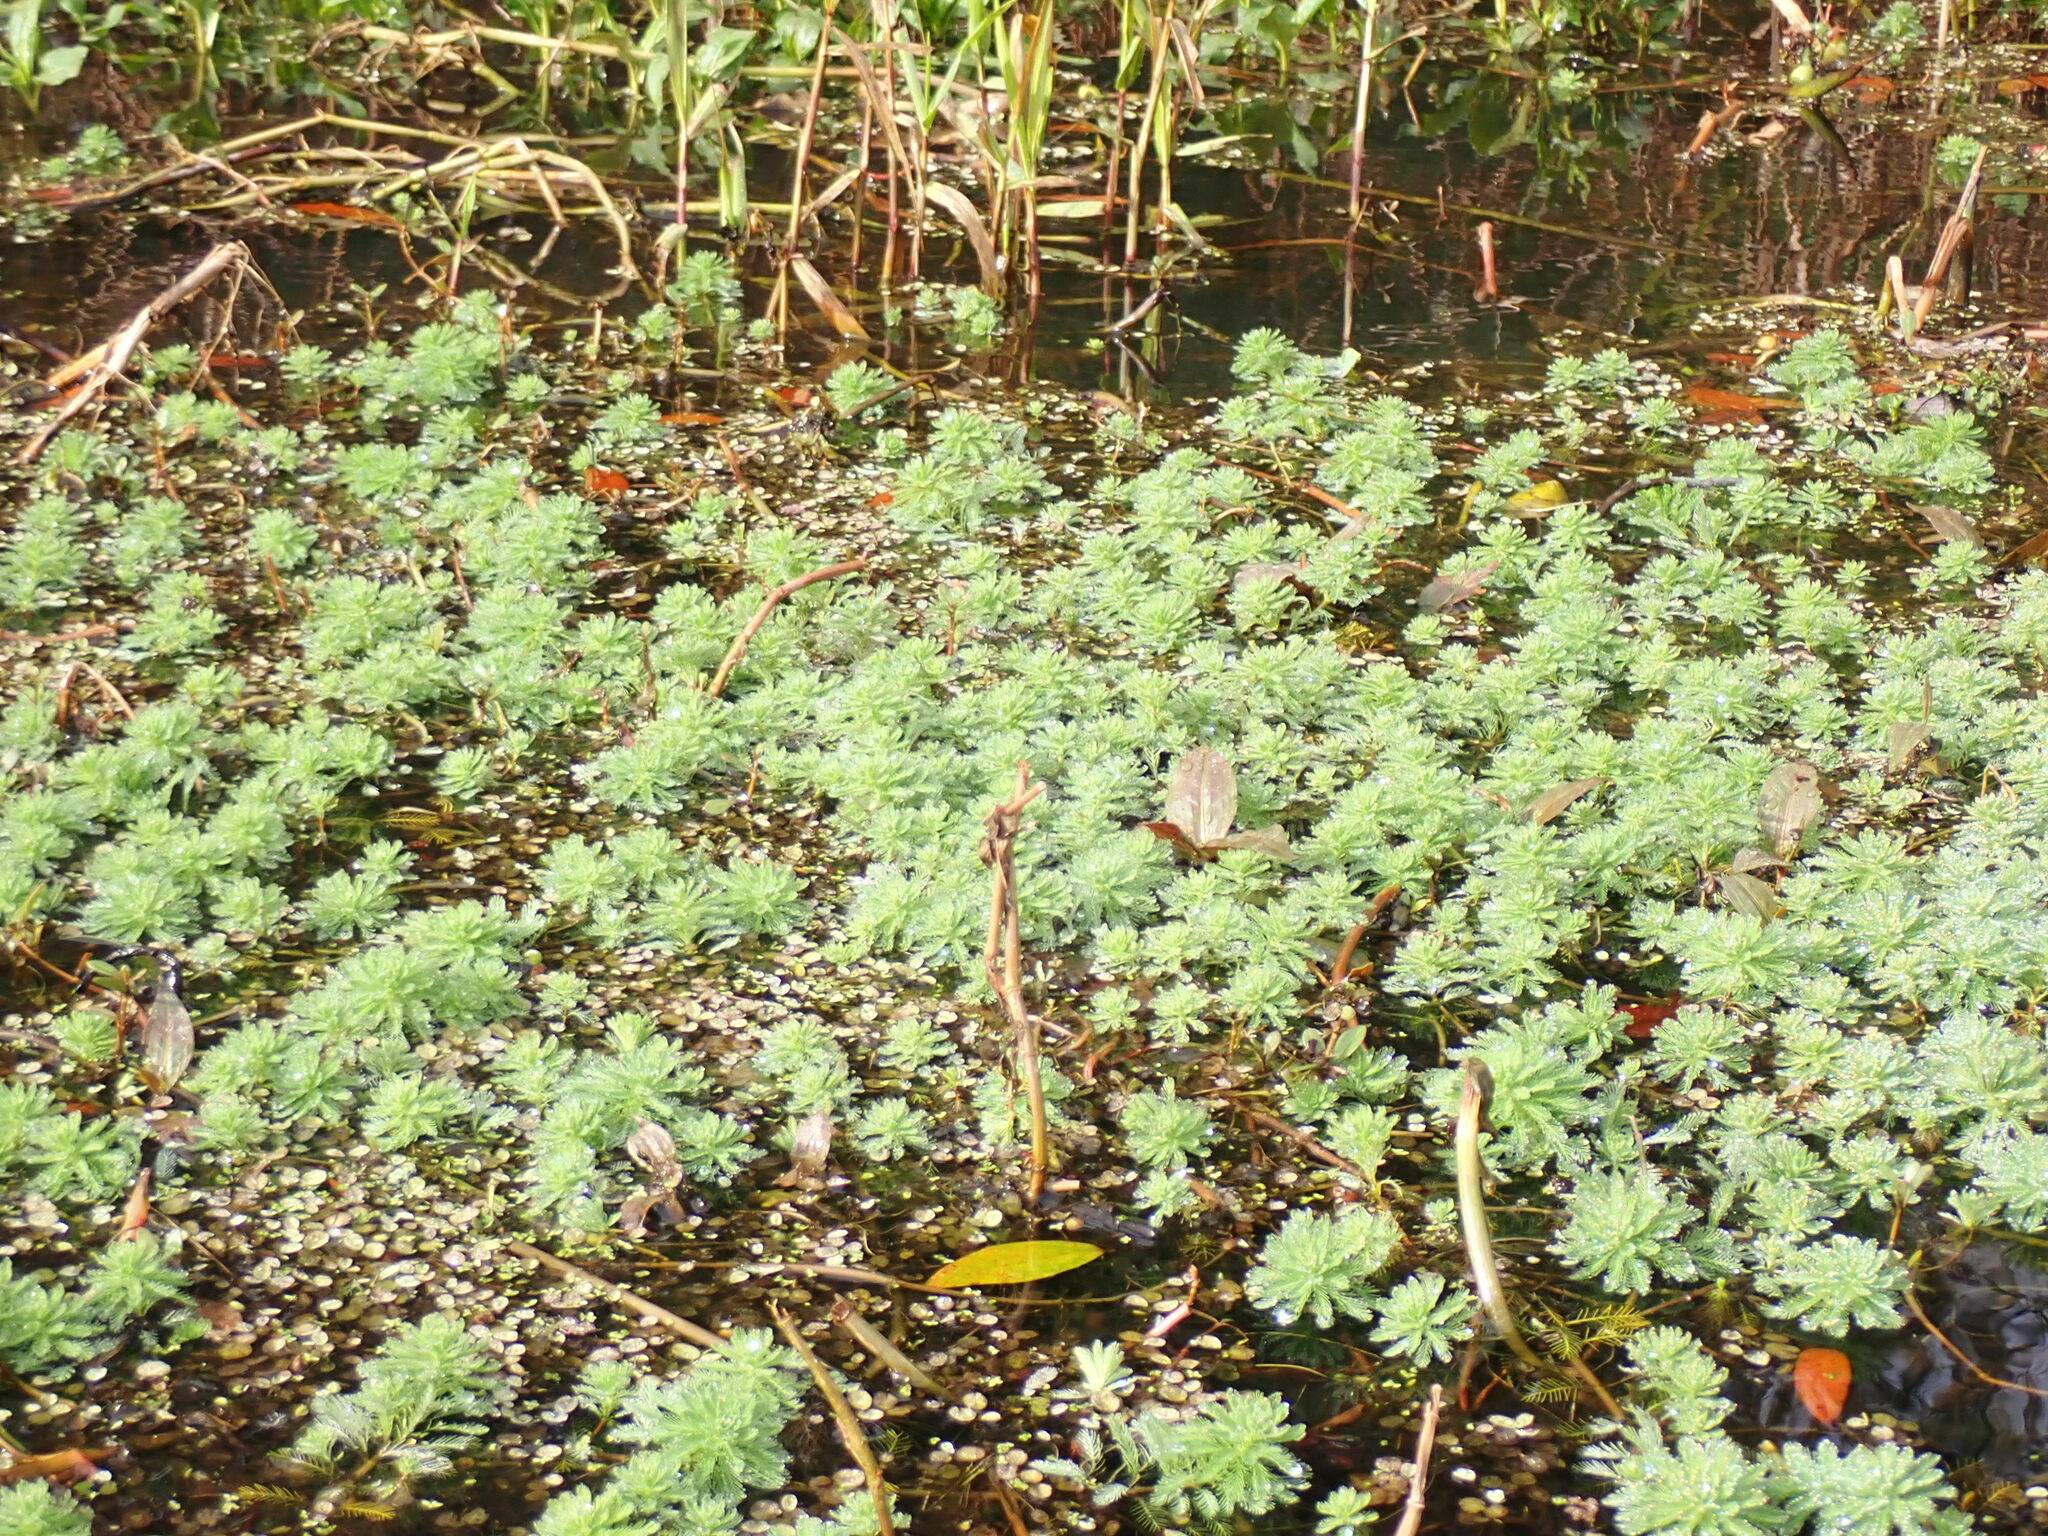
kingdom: Plantae
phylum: Tracheophyta
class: Magnoliopsida
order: Saxifragales
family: Haloragaceae
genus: Myriophyllum
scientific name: Myriophyllum aquaticum
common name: Parrot's feather
